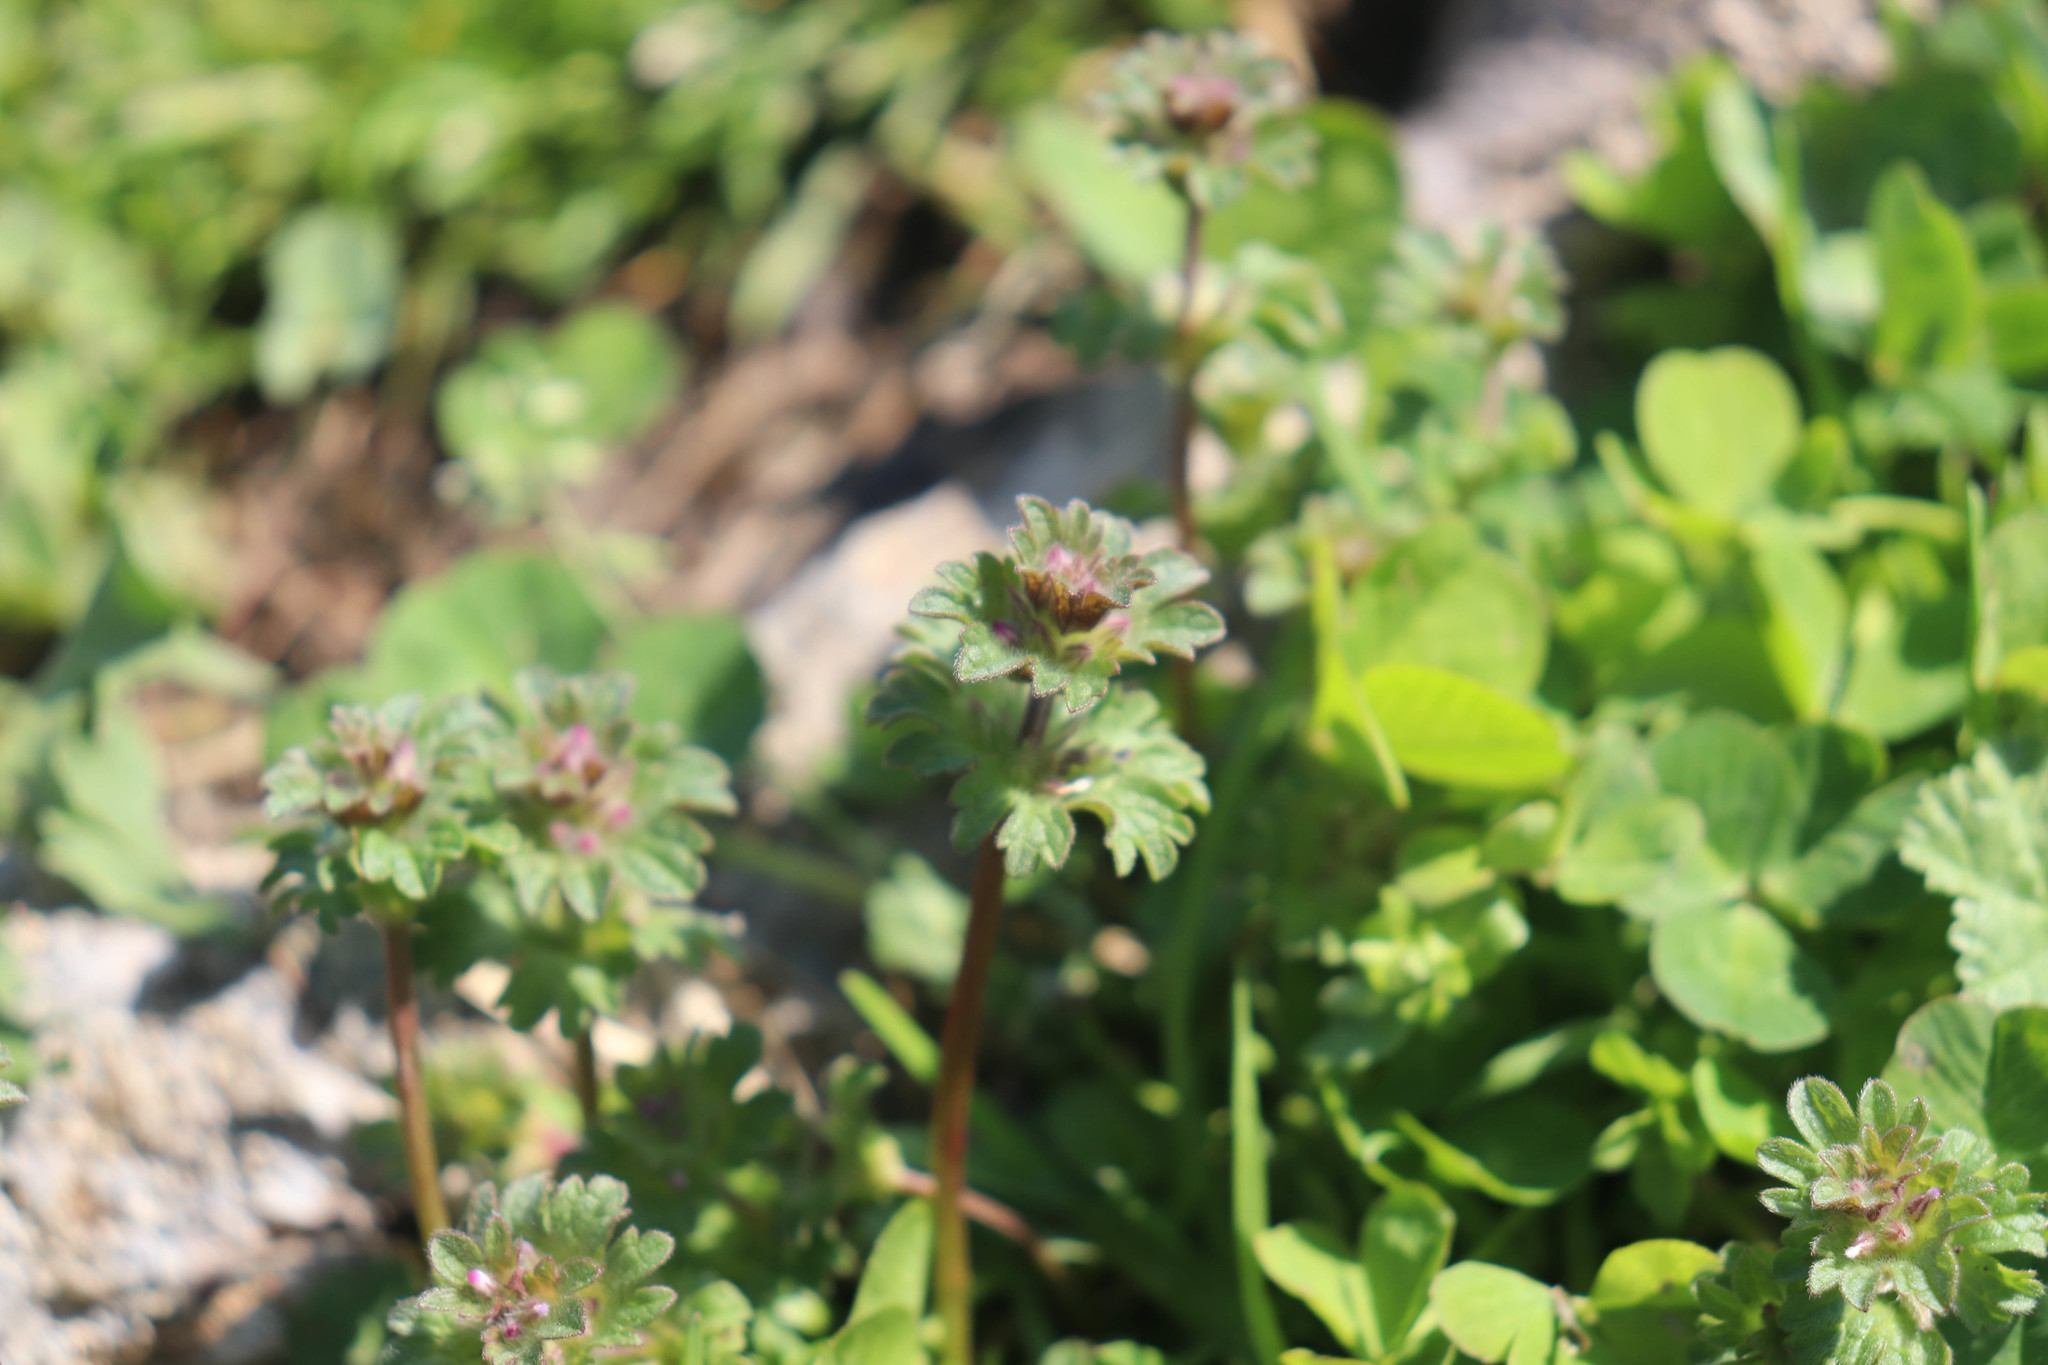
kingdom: Plantae
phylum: Tracheophyta
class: Magnoliopsida
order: Lamiales
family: Lamiaceae
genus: Lamium
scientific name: Lamium amplexicaule
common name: Henbit dead-nettle
